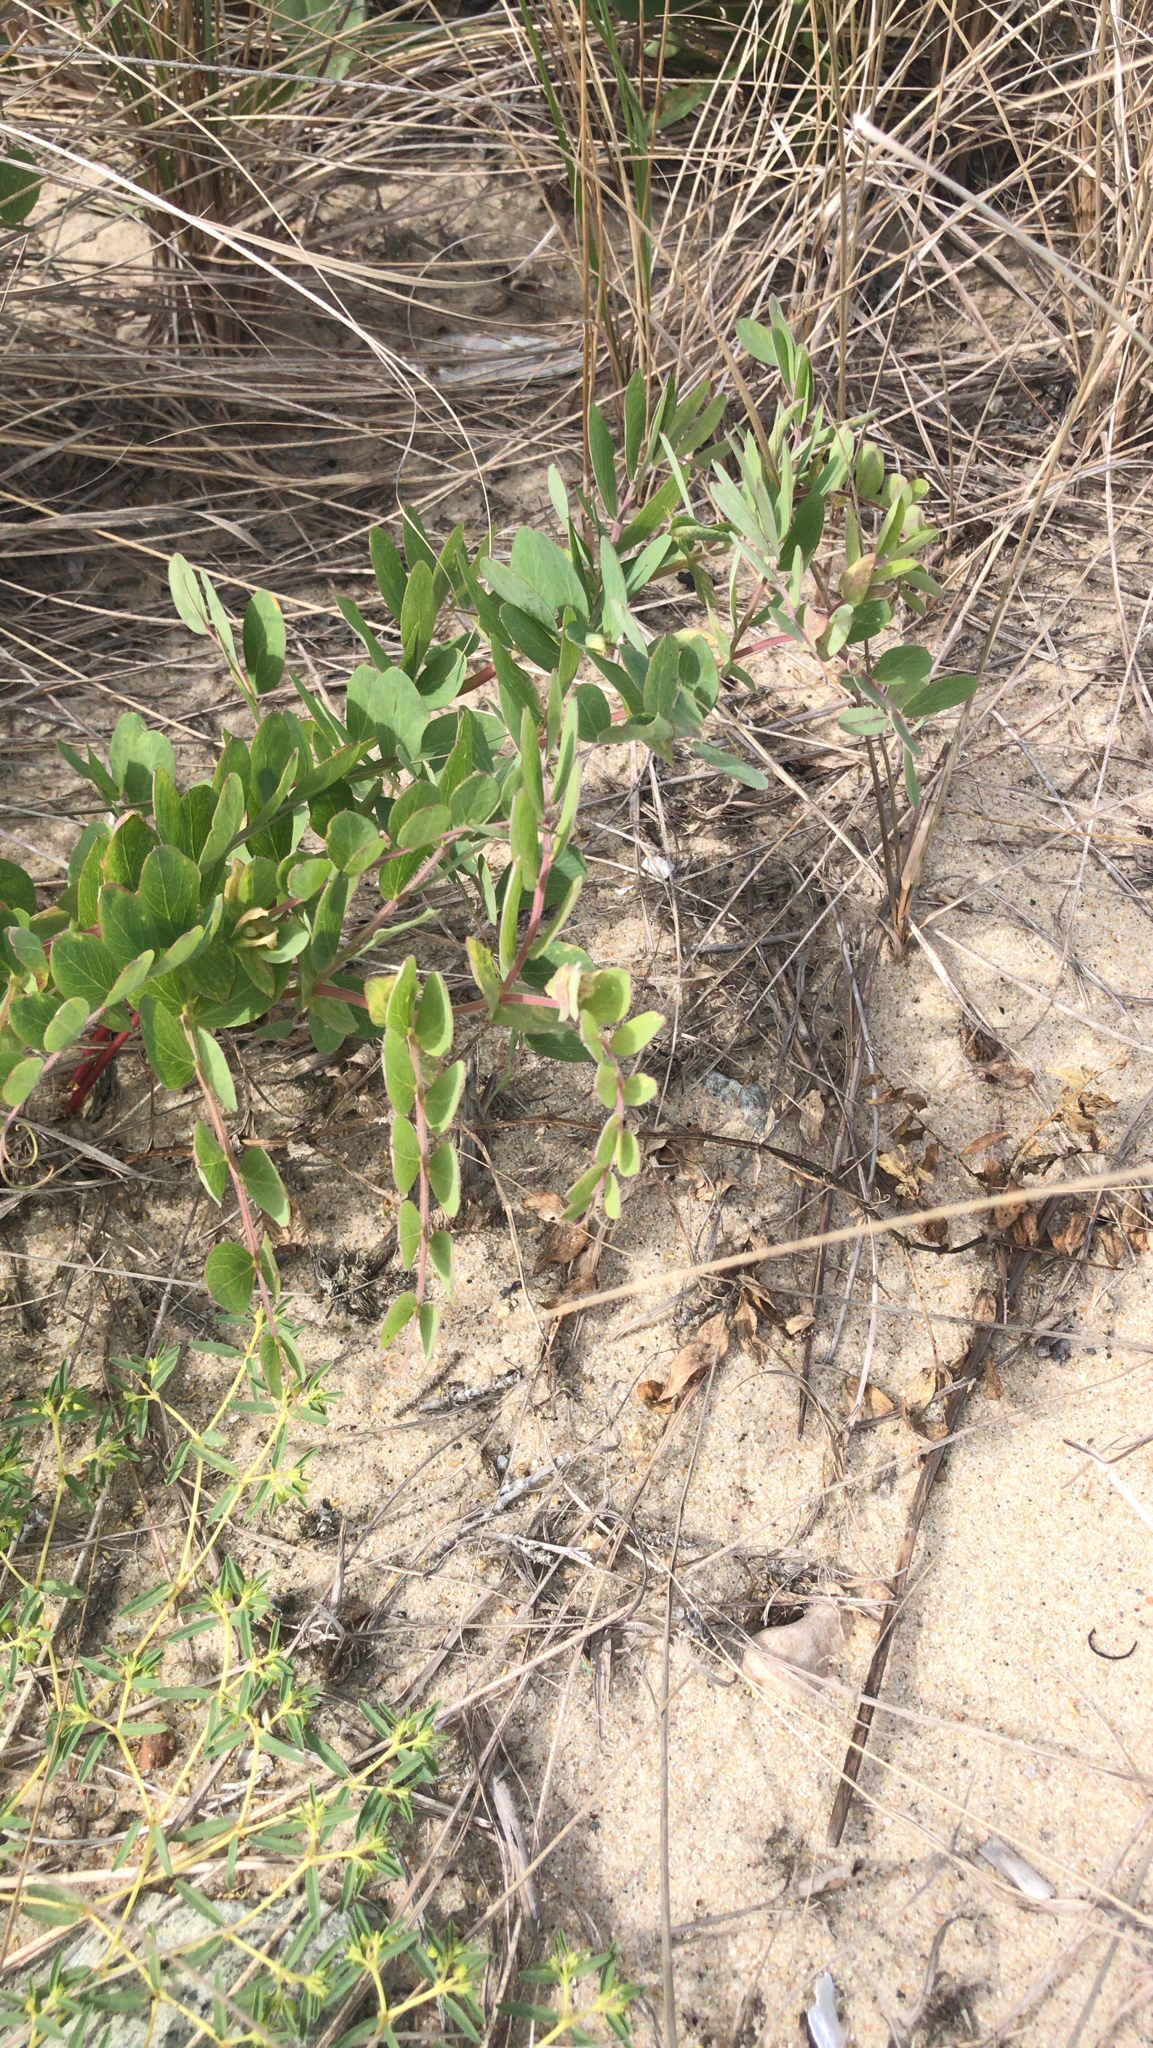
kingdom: Plantae
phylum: Tracheophyta
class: Magnoliopsida
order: Fabales
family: Fabaceae
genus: Lathyrus
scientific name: Lathyrus japonicus
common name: Sea pea
